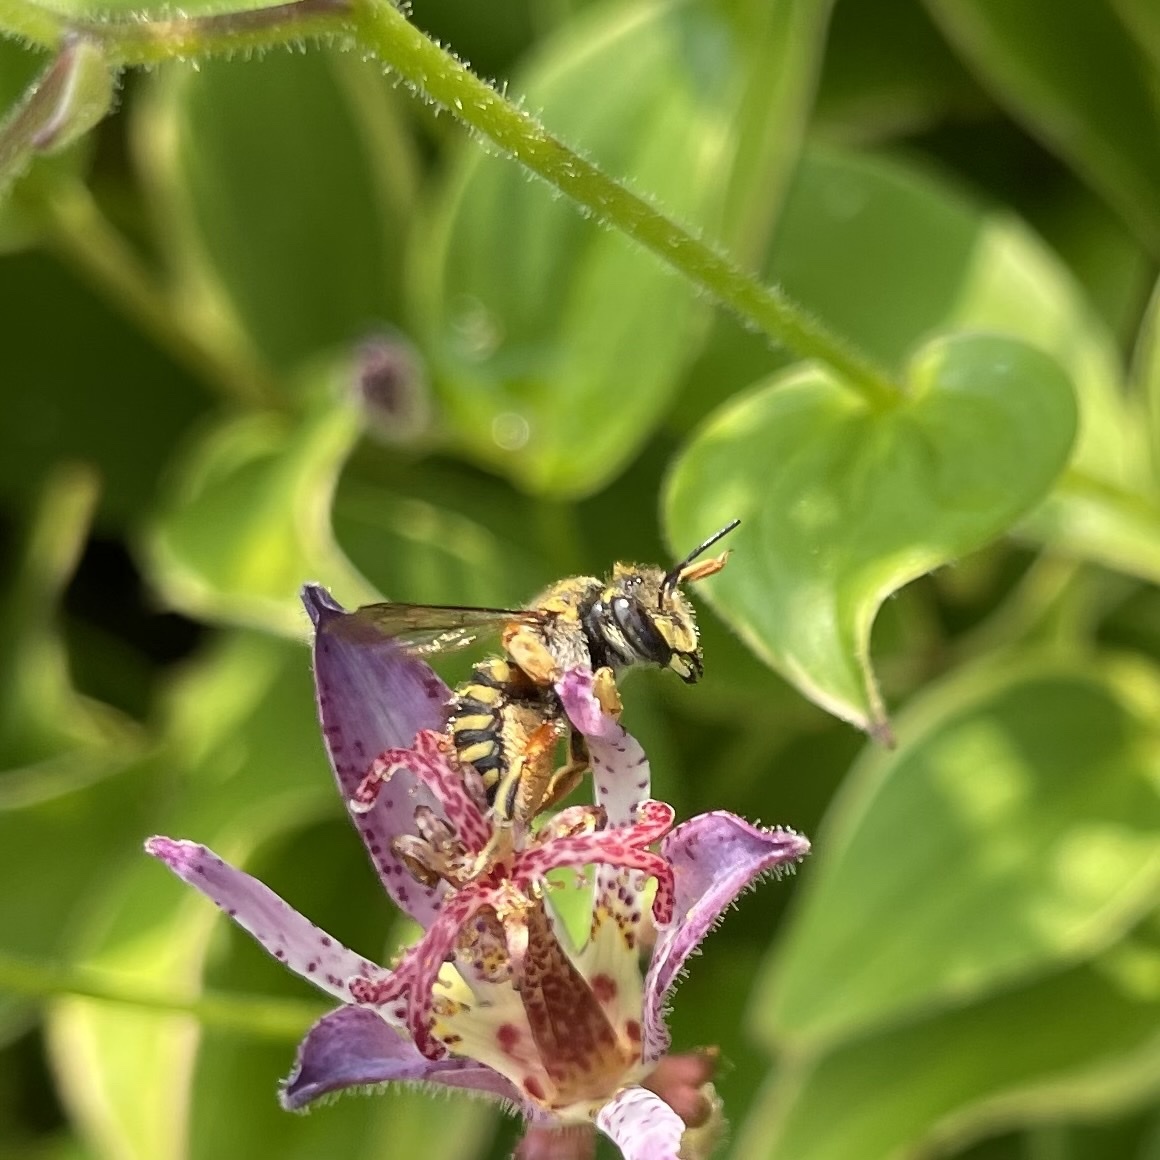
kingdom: Animalia
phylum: Arthropoda
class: Insecta
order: Hymenoptera
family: Megachilidae
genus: Anthidium
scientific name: Anthidium manicatum
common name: Wool carder bee
